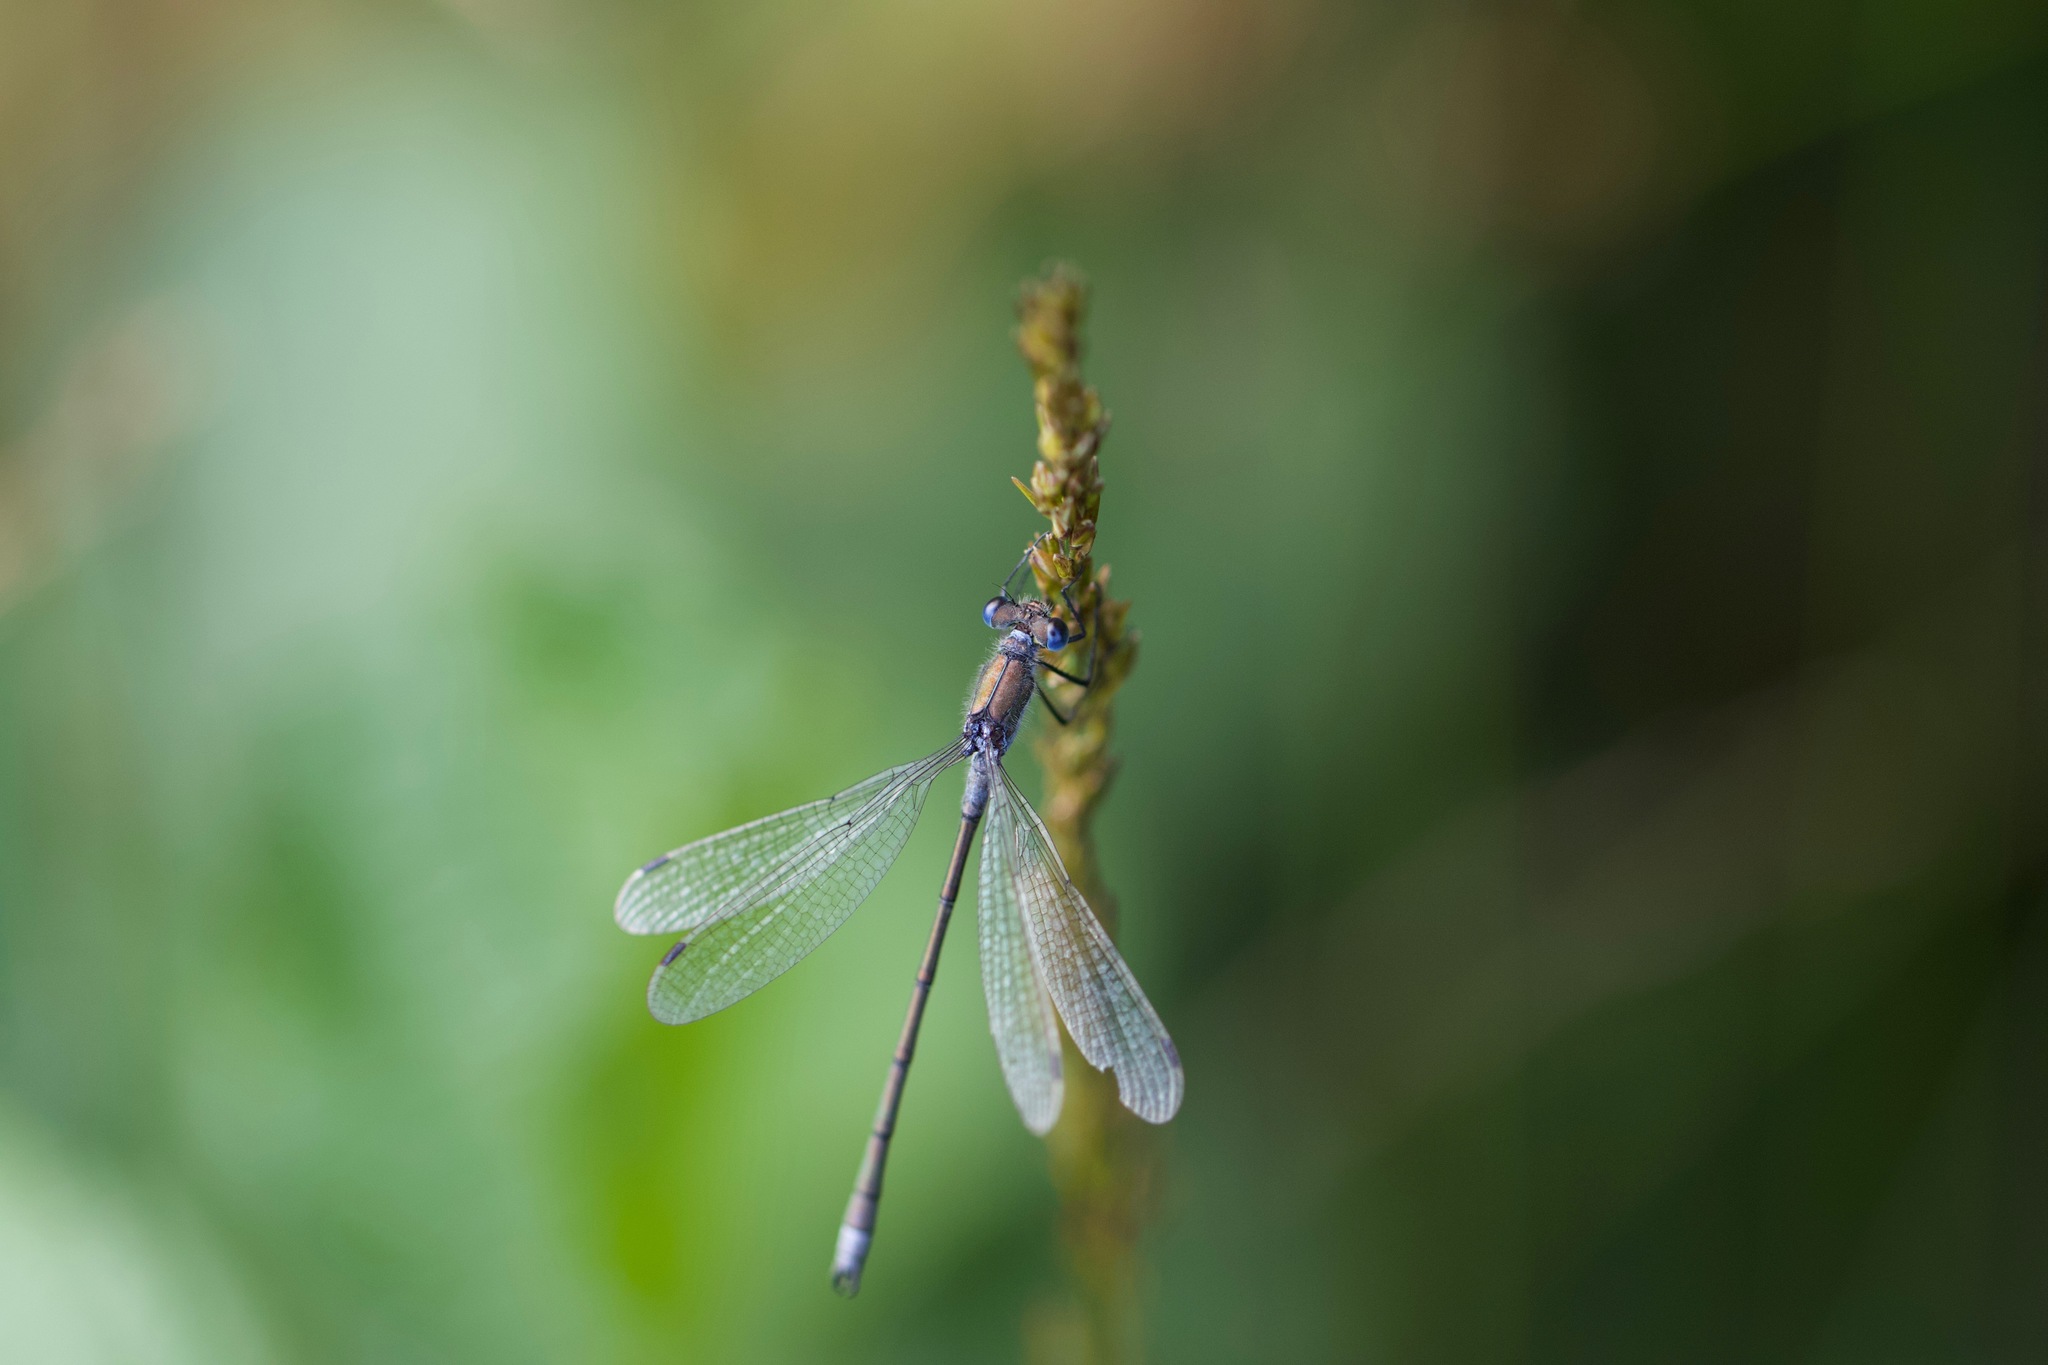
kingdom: Animalia
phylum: Arthropoda
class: Insecta
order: Odonata
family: Lestidae
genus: Lestes
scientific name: Lestes sponsa
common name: Common spreadwing
